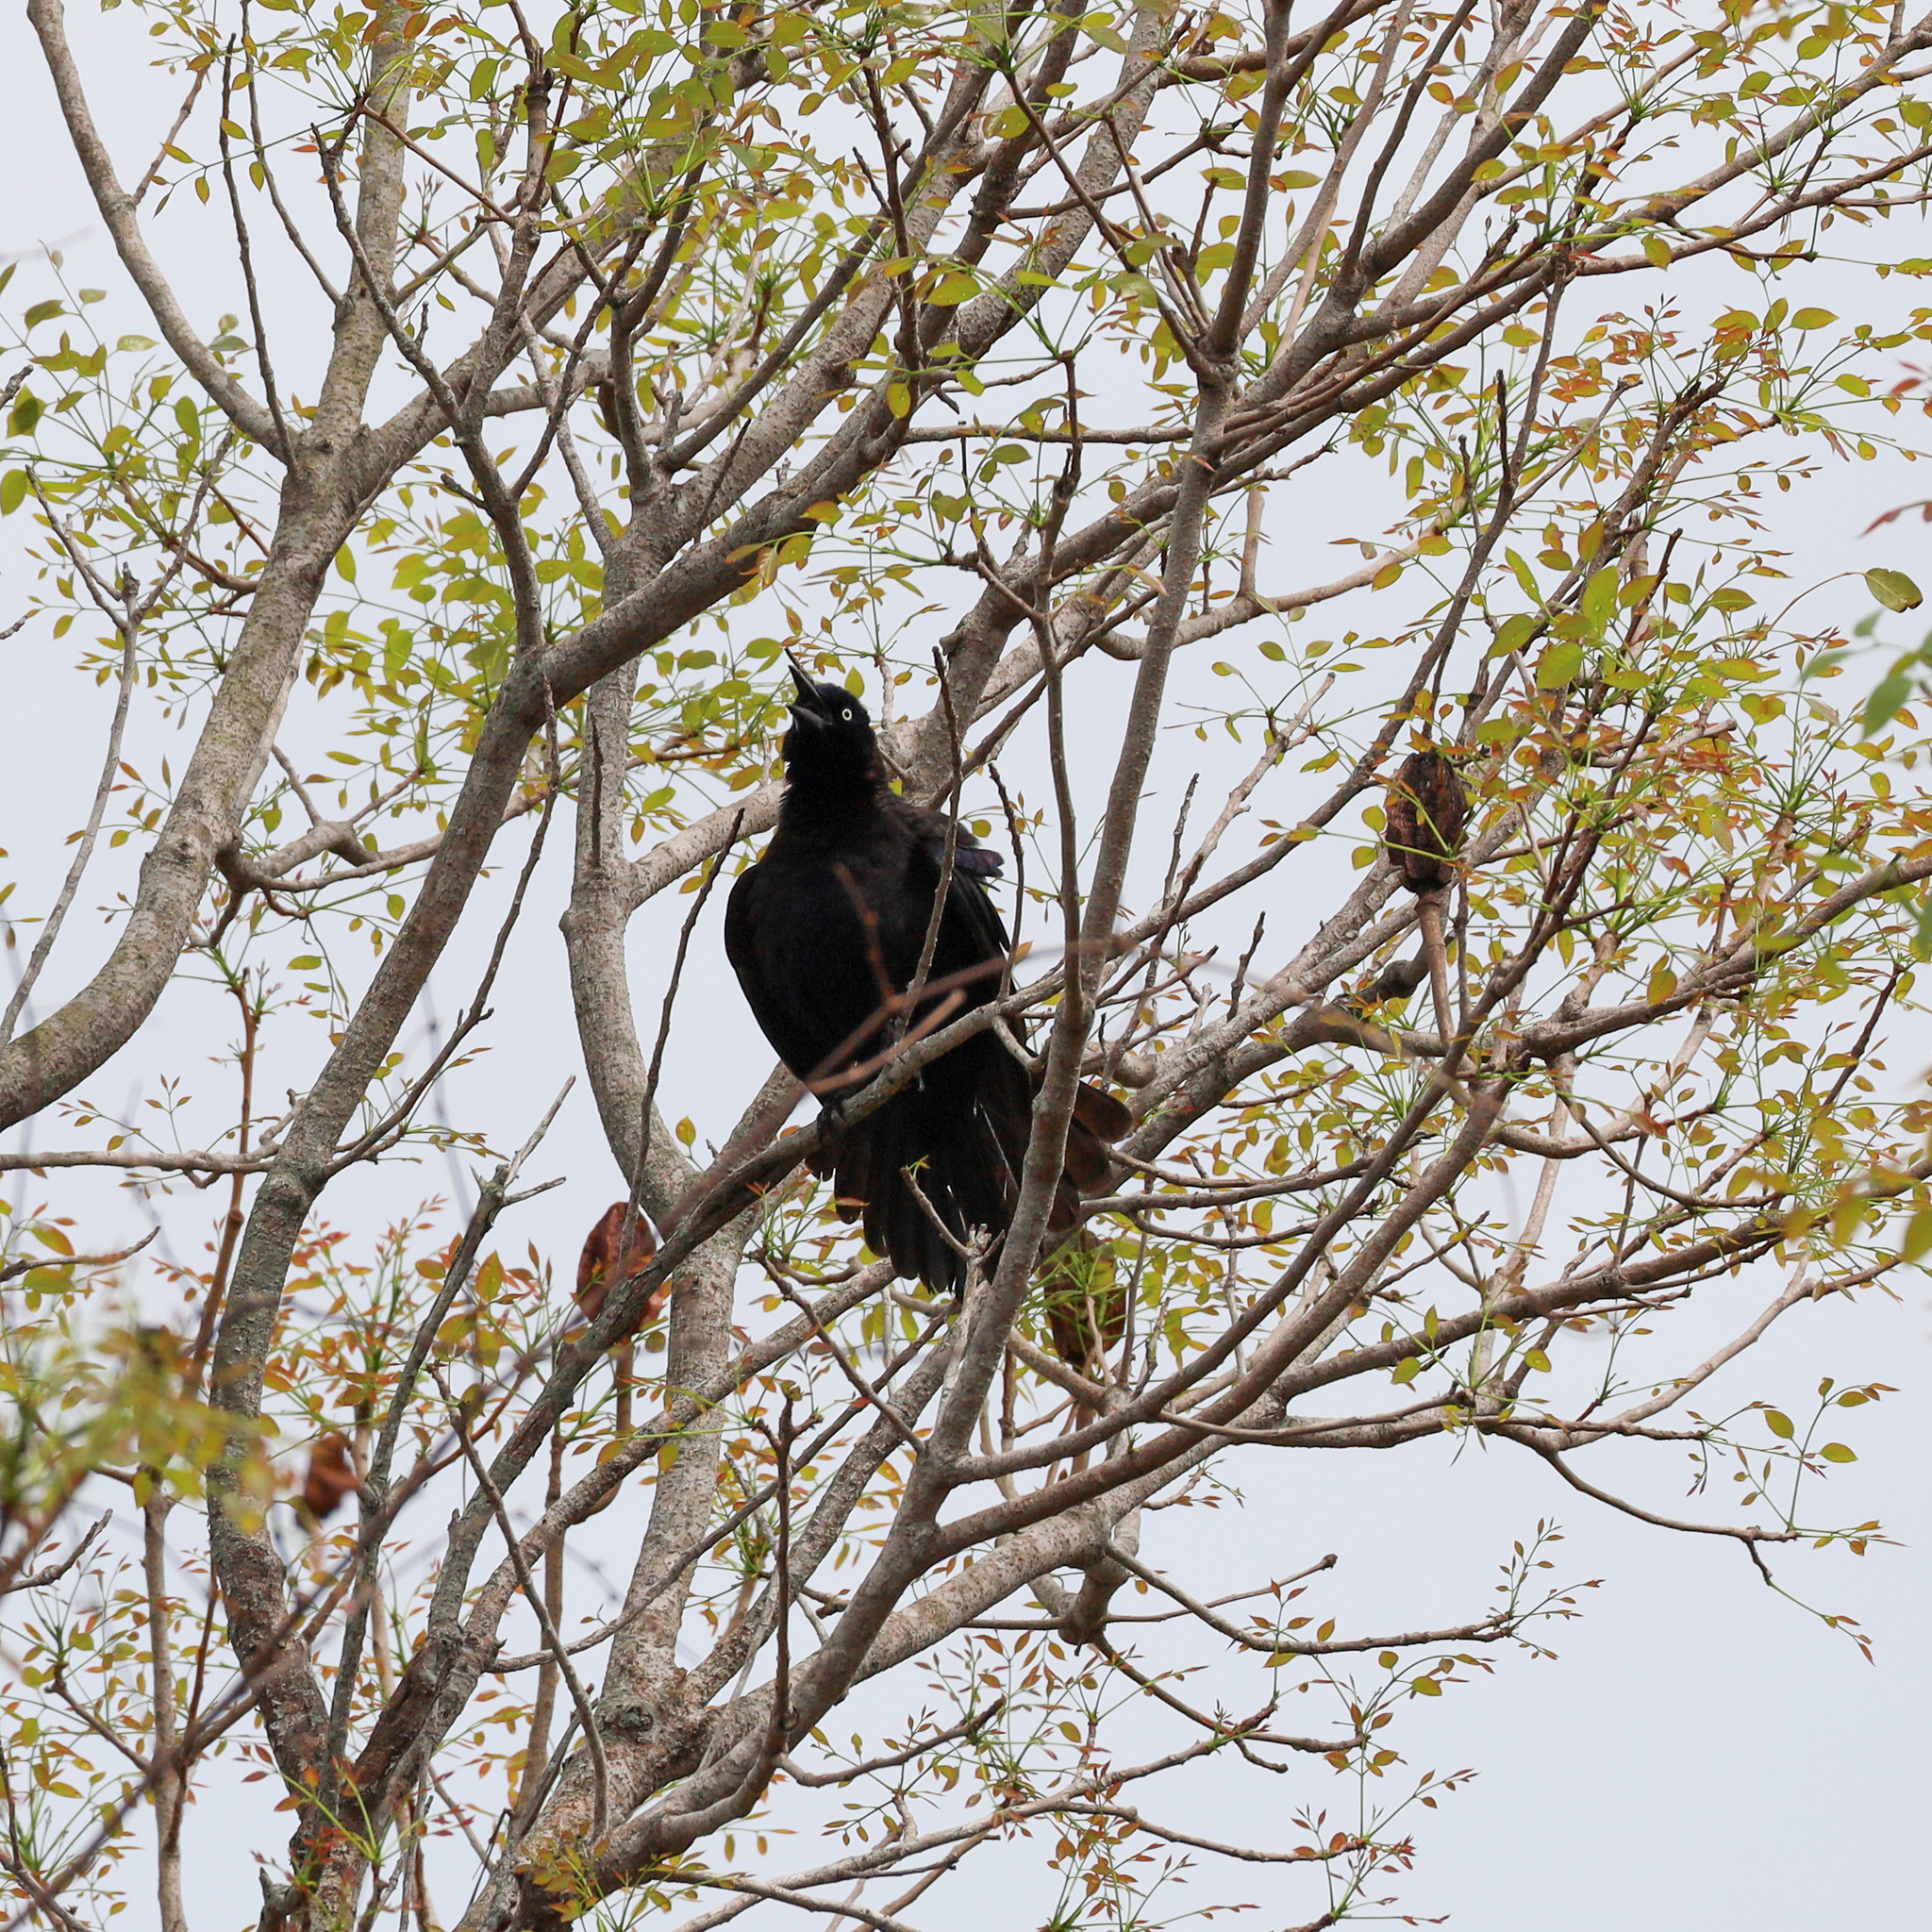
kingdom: Animalia
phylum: Chordata
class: Aves
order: Passeriformes
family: Icteridae
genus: Quiscalus
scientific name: Quiscalus quiscula
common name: Common grackle
